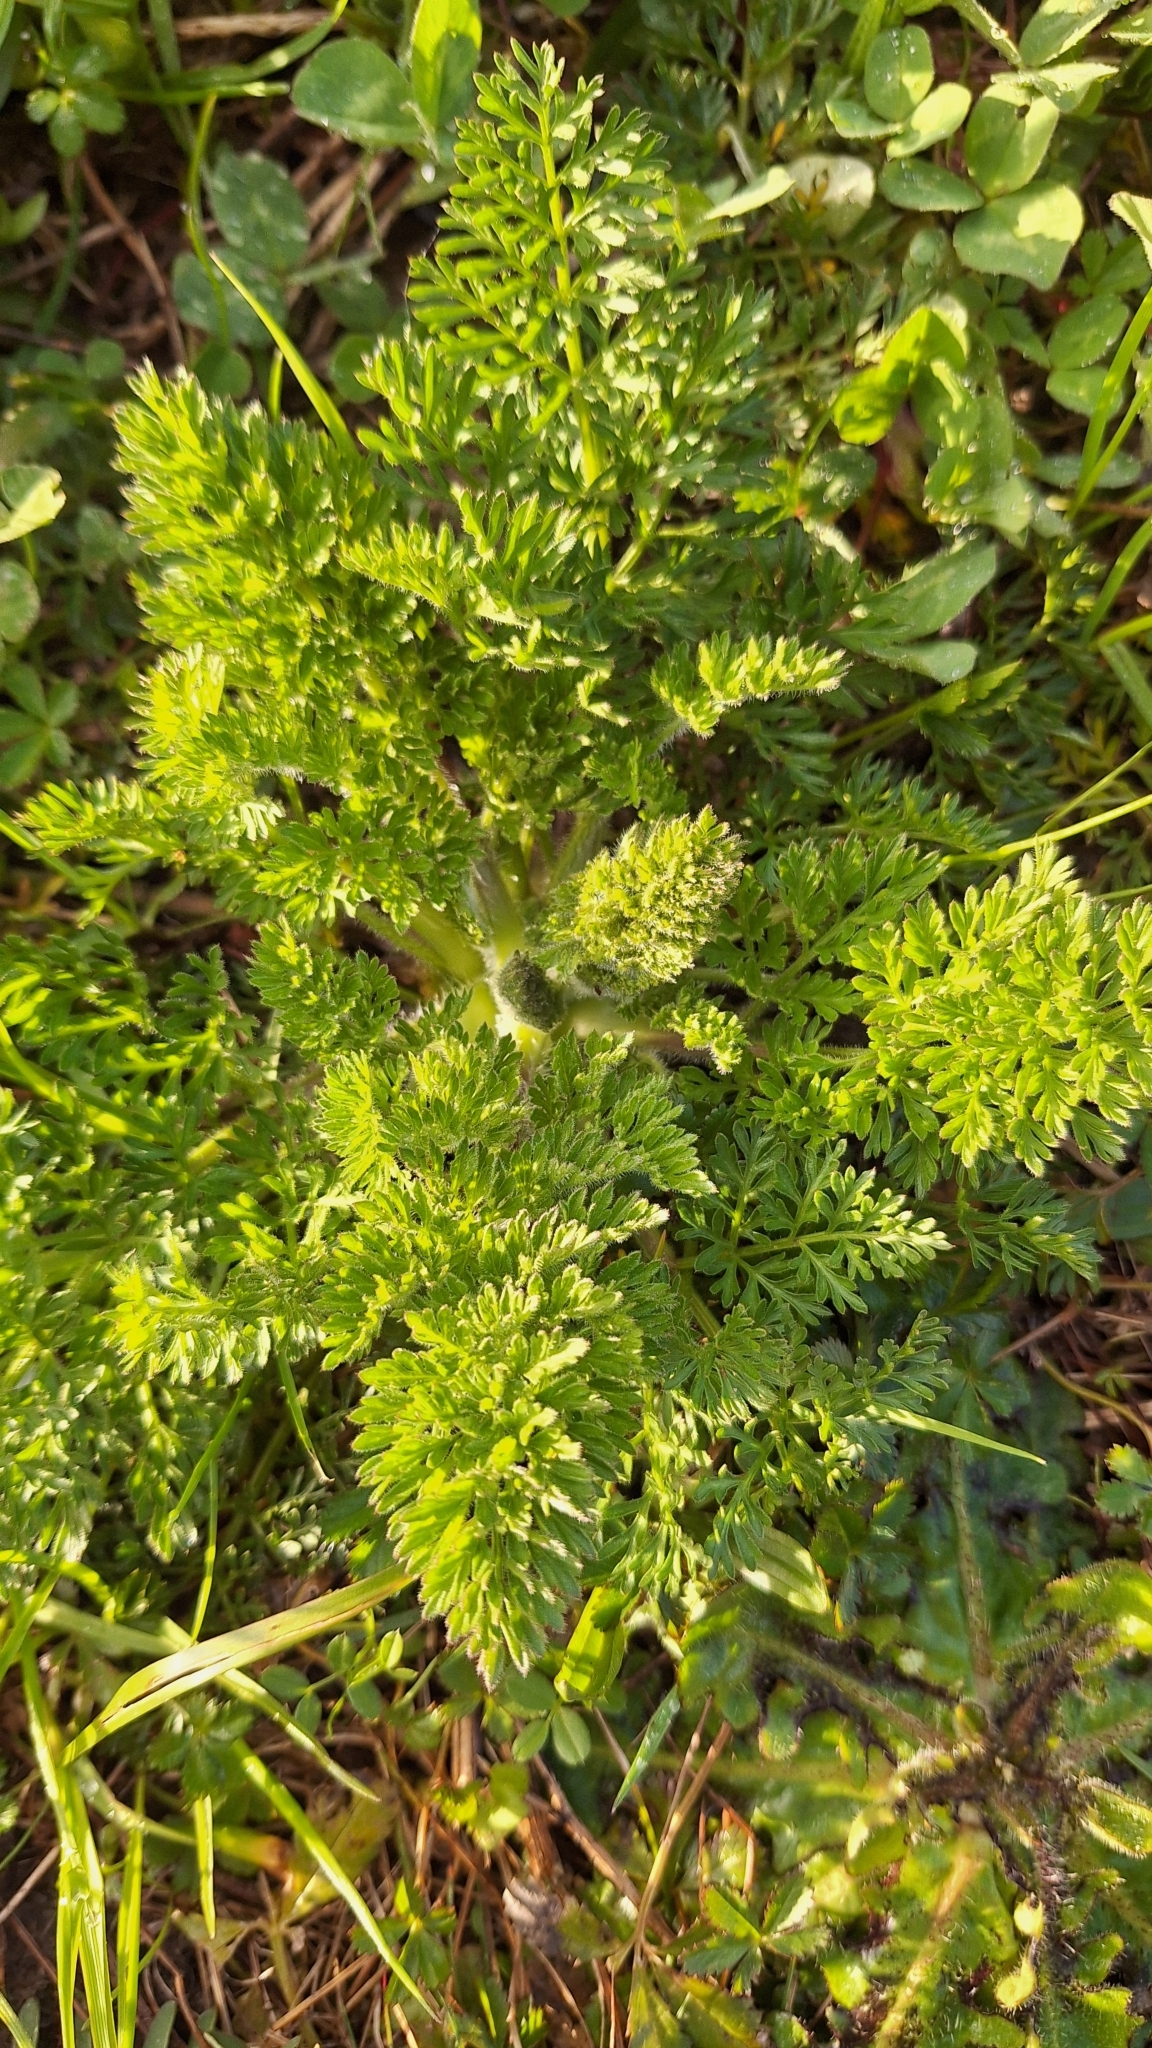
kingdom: Plantae
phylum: Tracheophyta
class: Magnoliopsida
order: Apiales
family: Apiaceae
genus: Daucus
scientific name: Daucus carota
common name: Wild carrot
